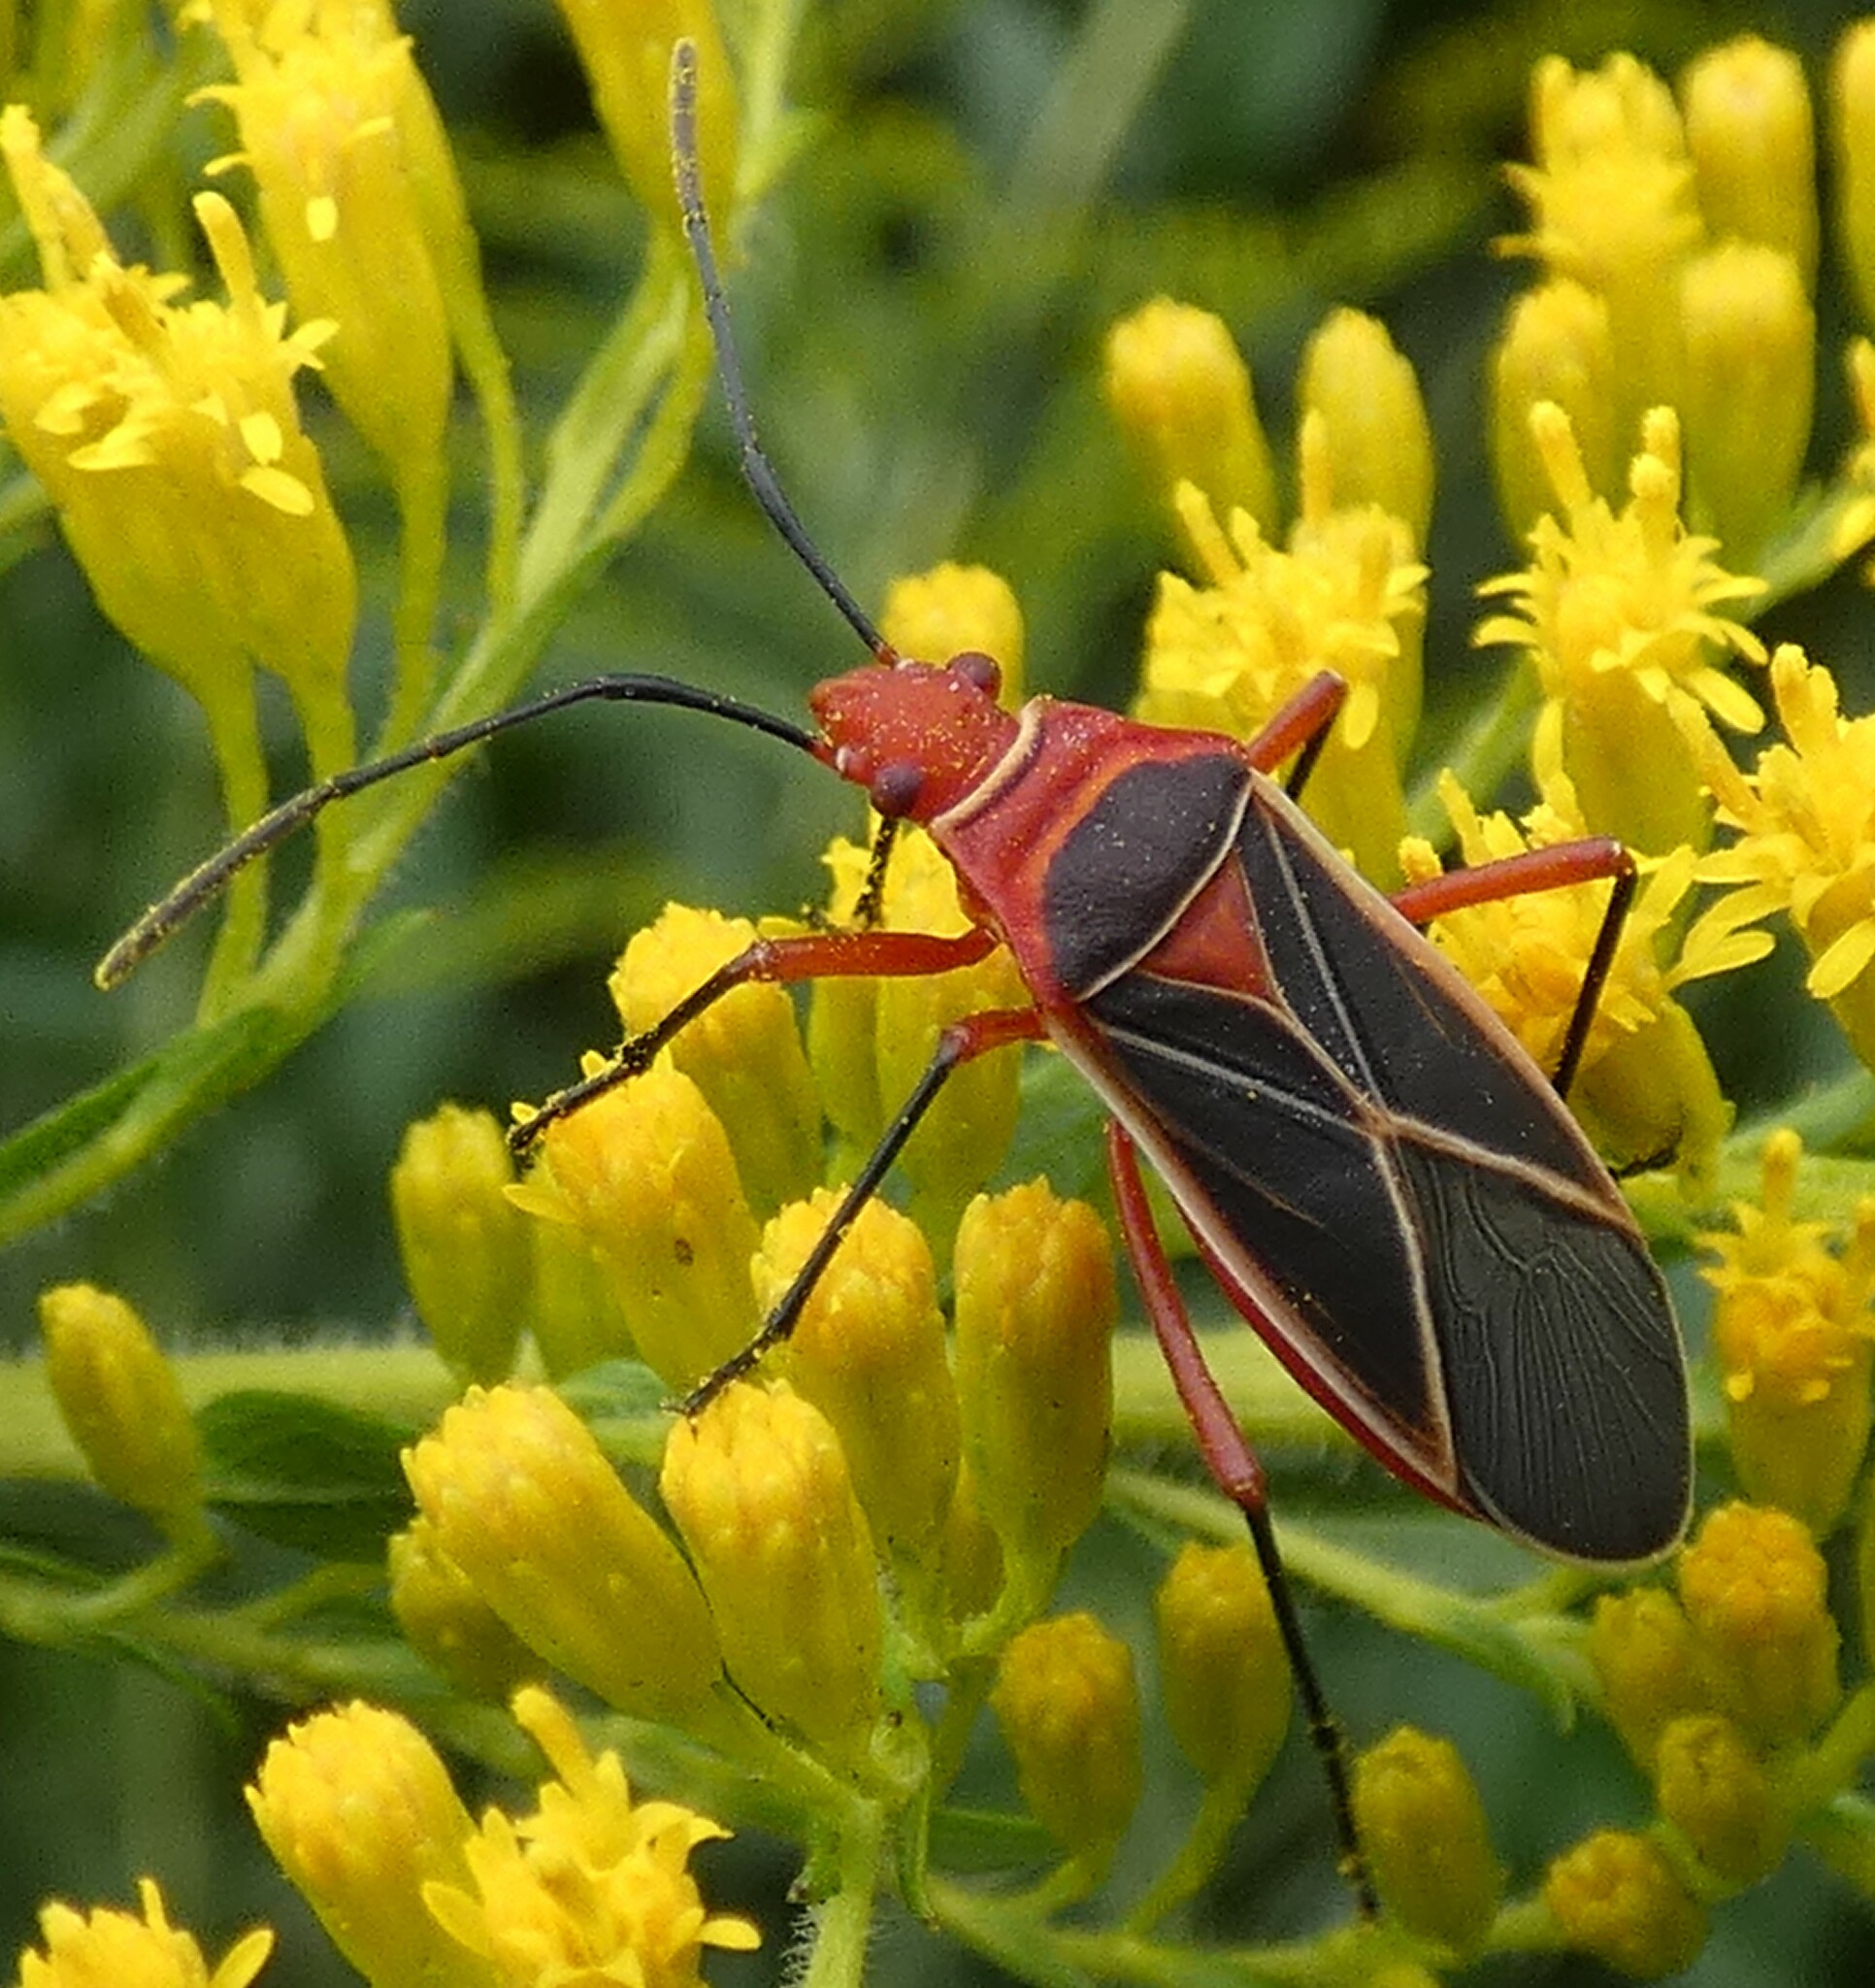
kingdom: Animalia
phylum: Arthropoda
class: Insecta
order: Hemiptera
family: Pyrrhocoridae
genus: Dysdercus
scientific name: Dysdercus suturellus
